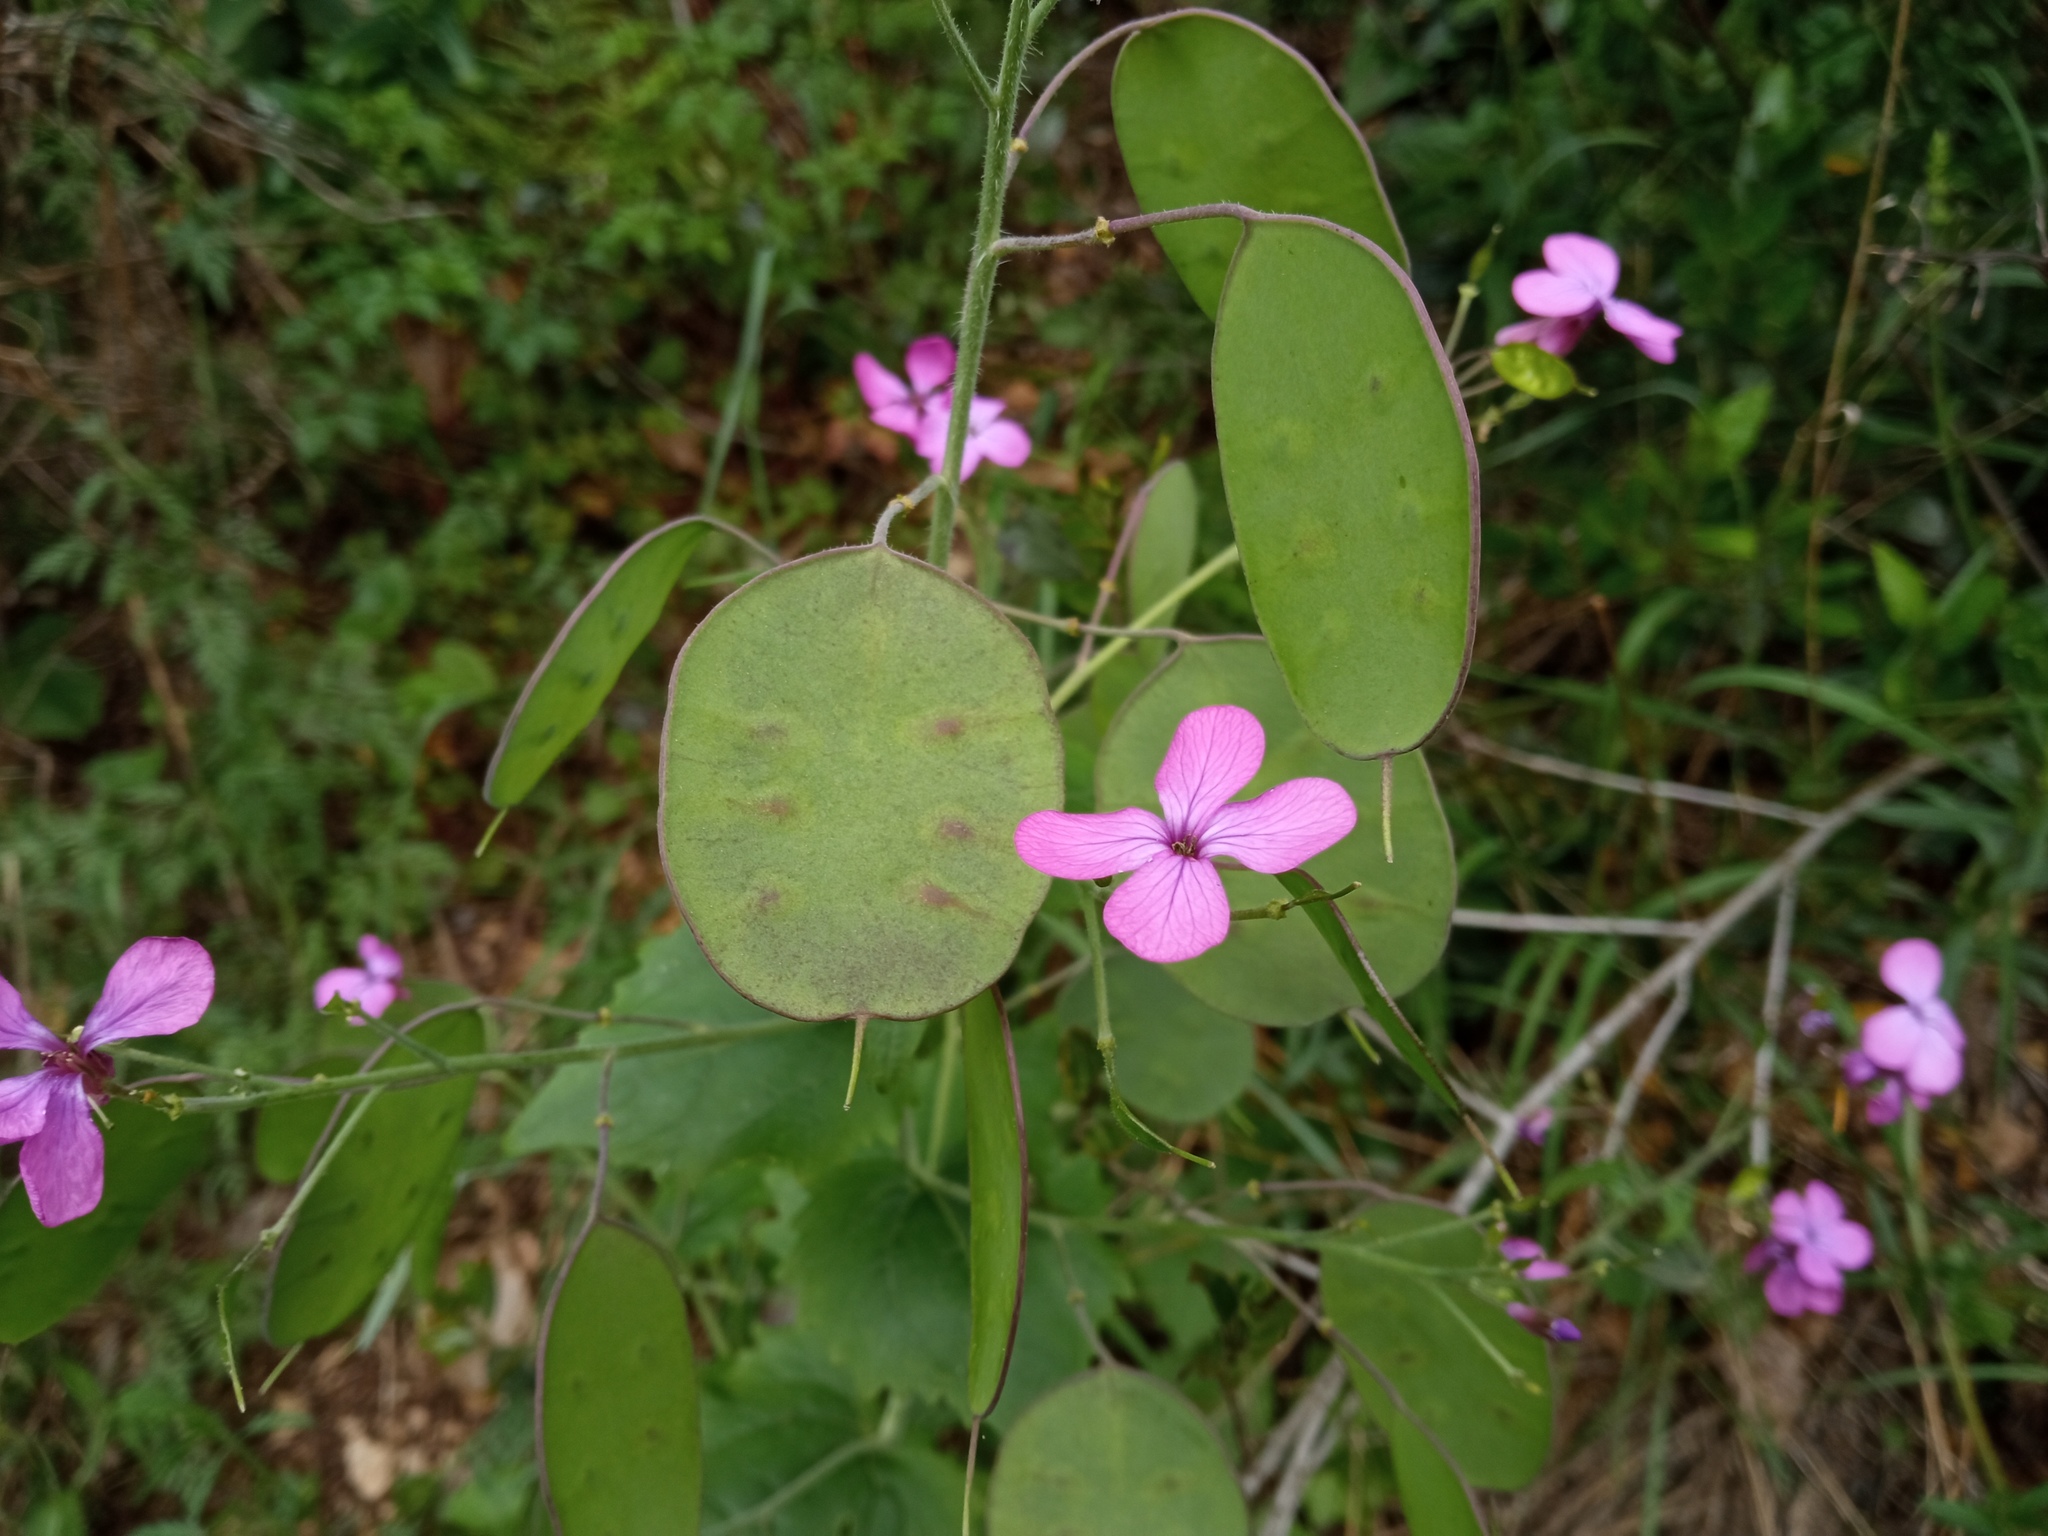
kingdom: Plantae
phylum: Tracheophyta
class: Magnoliopsida
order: Brassicales
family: Brassicaceae
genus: Lunaria
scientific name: Lunaria annua
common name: Honesty
